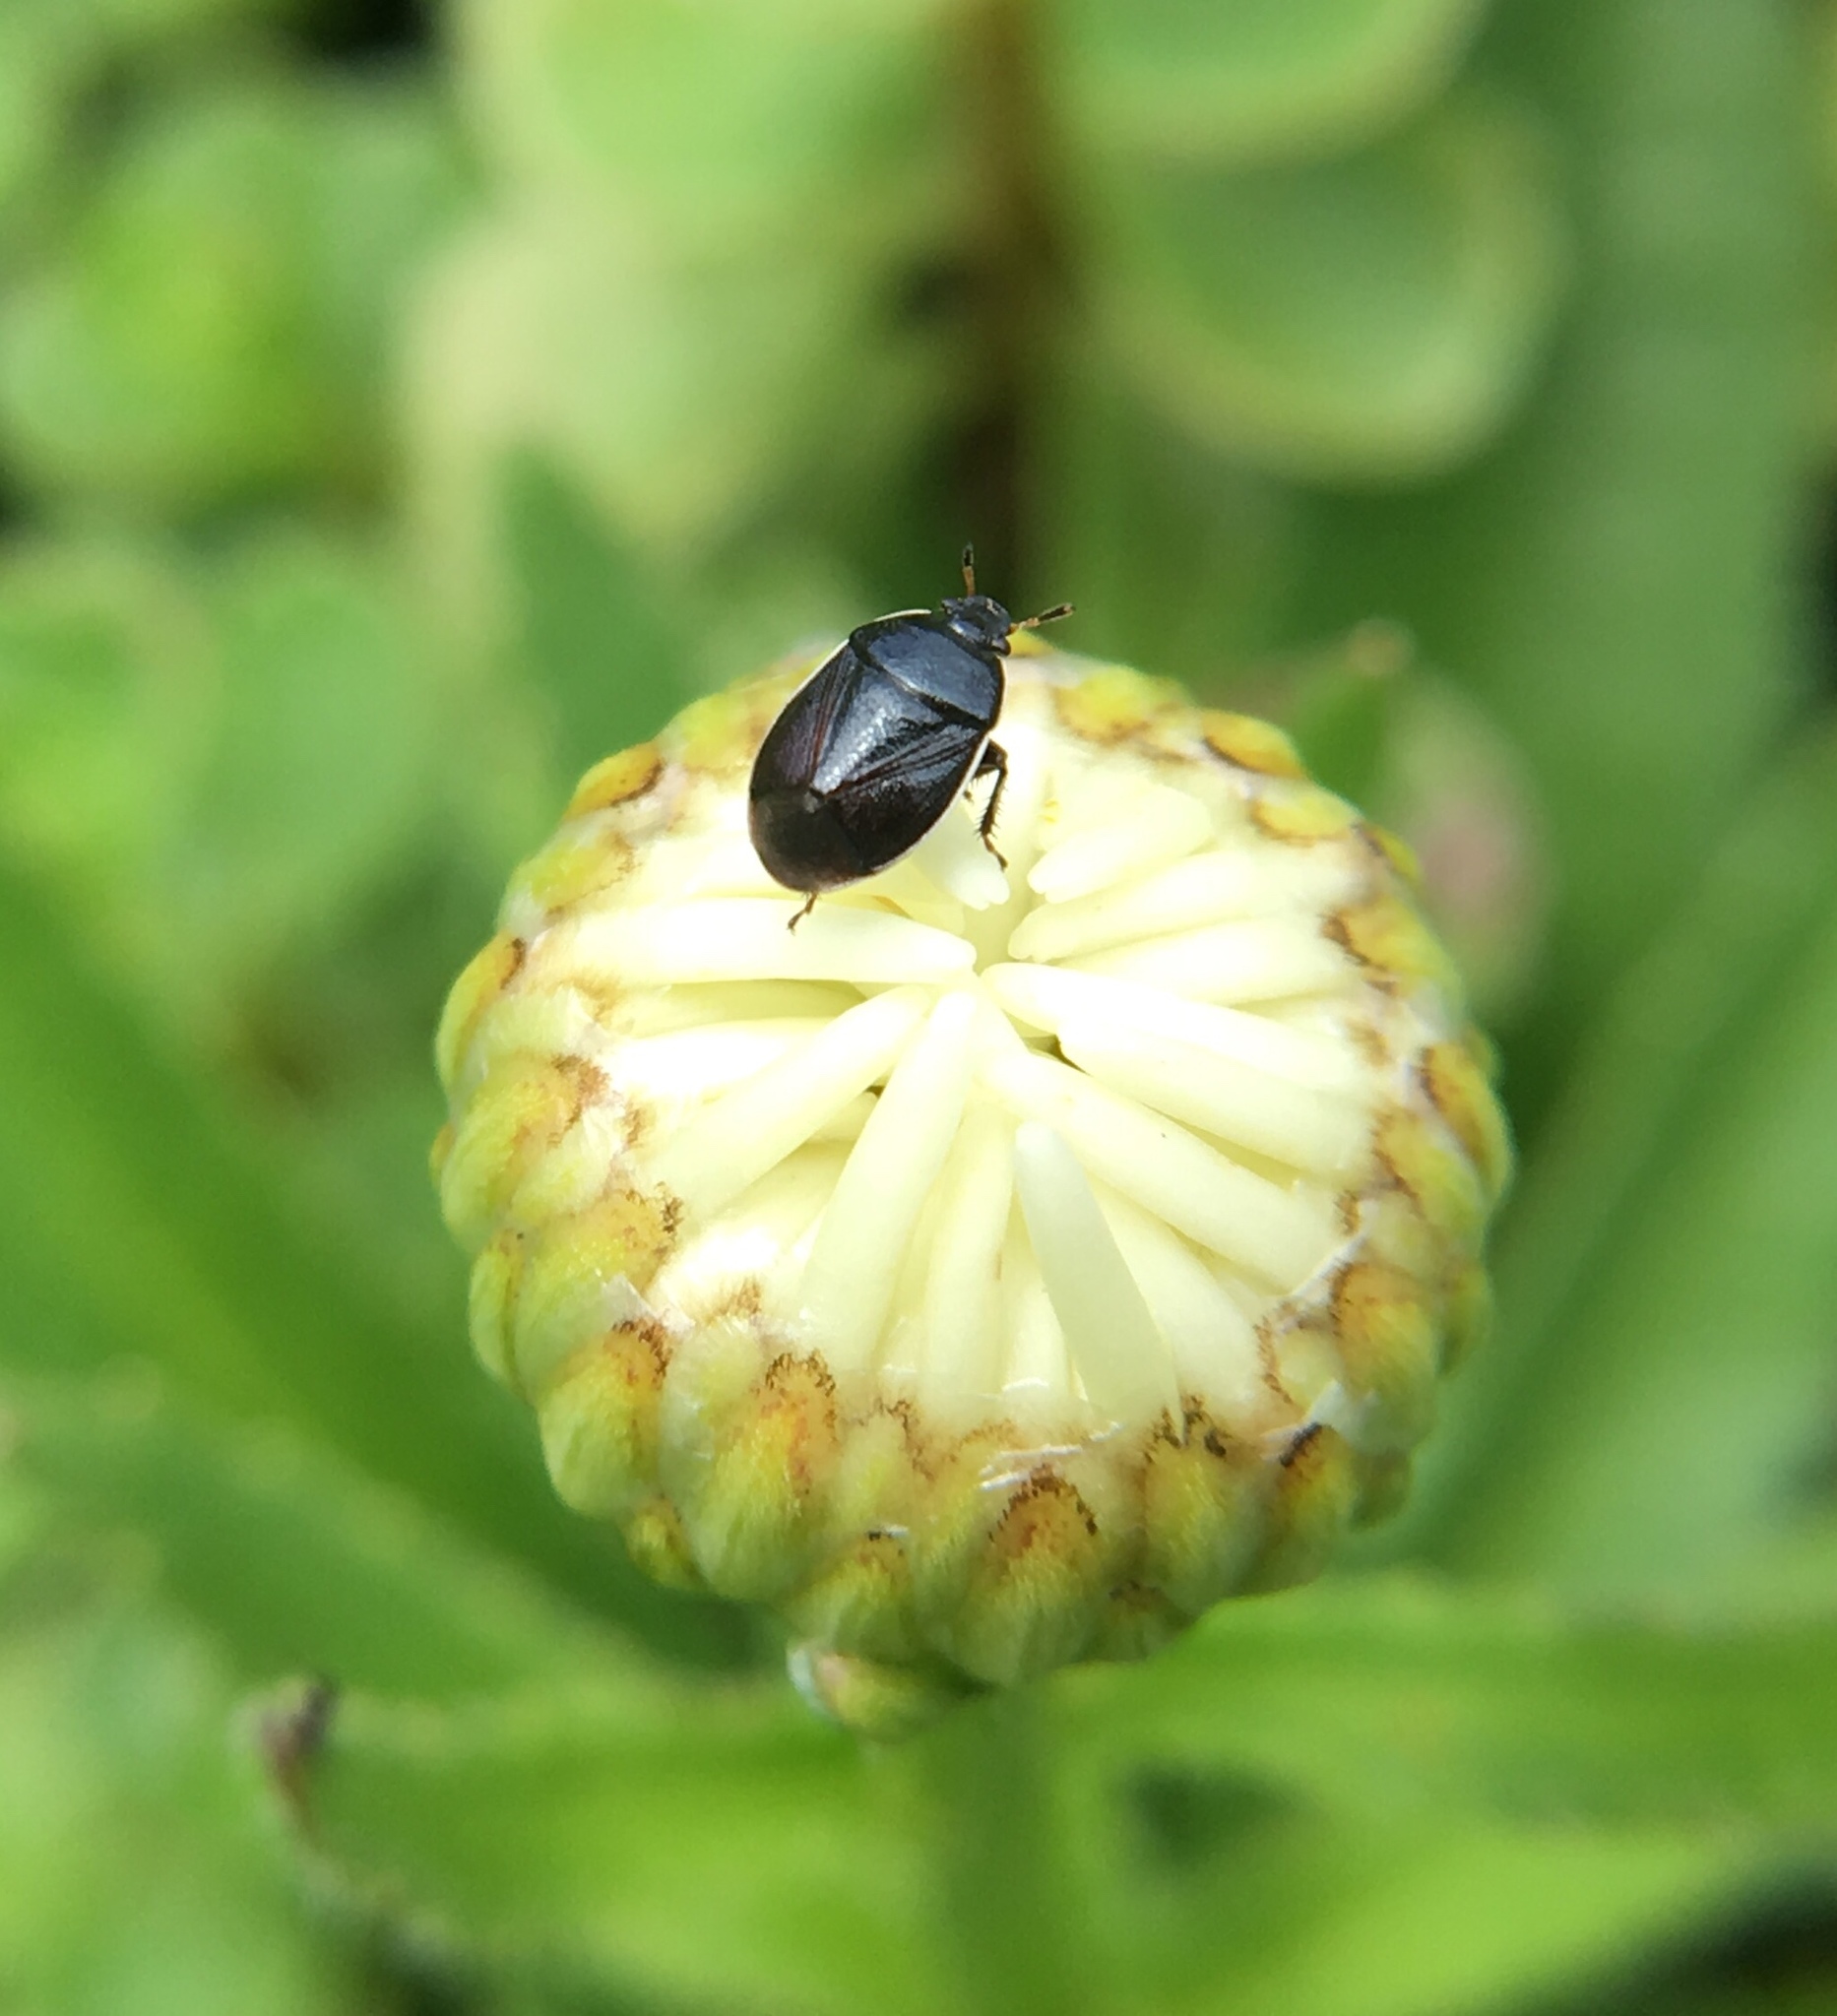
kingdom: Animalia
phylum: Arthropoda
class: Insecta
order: Hemiptera
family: Cydnidae
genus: Sehirus
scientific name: Sehirus cinctus
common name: White-margined burrower bug
